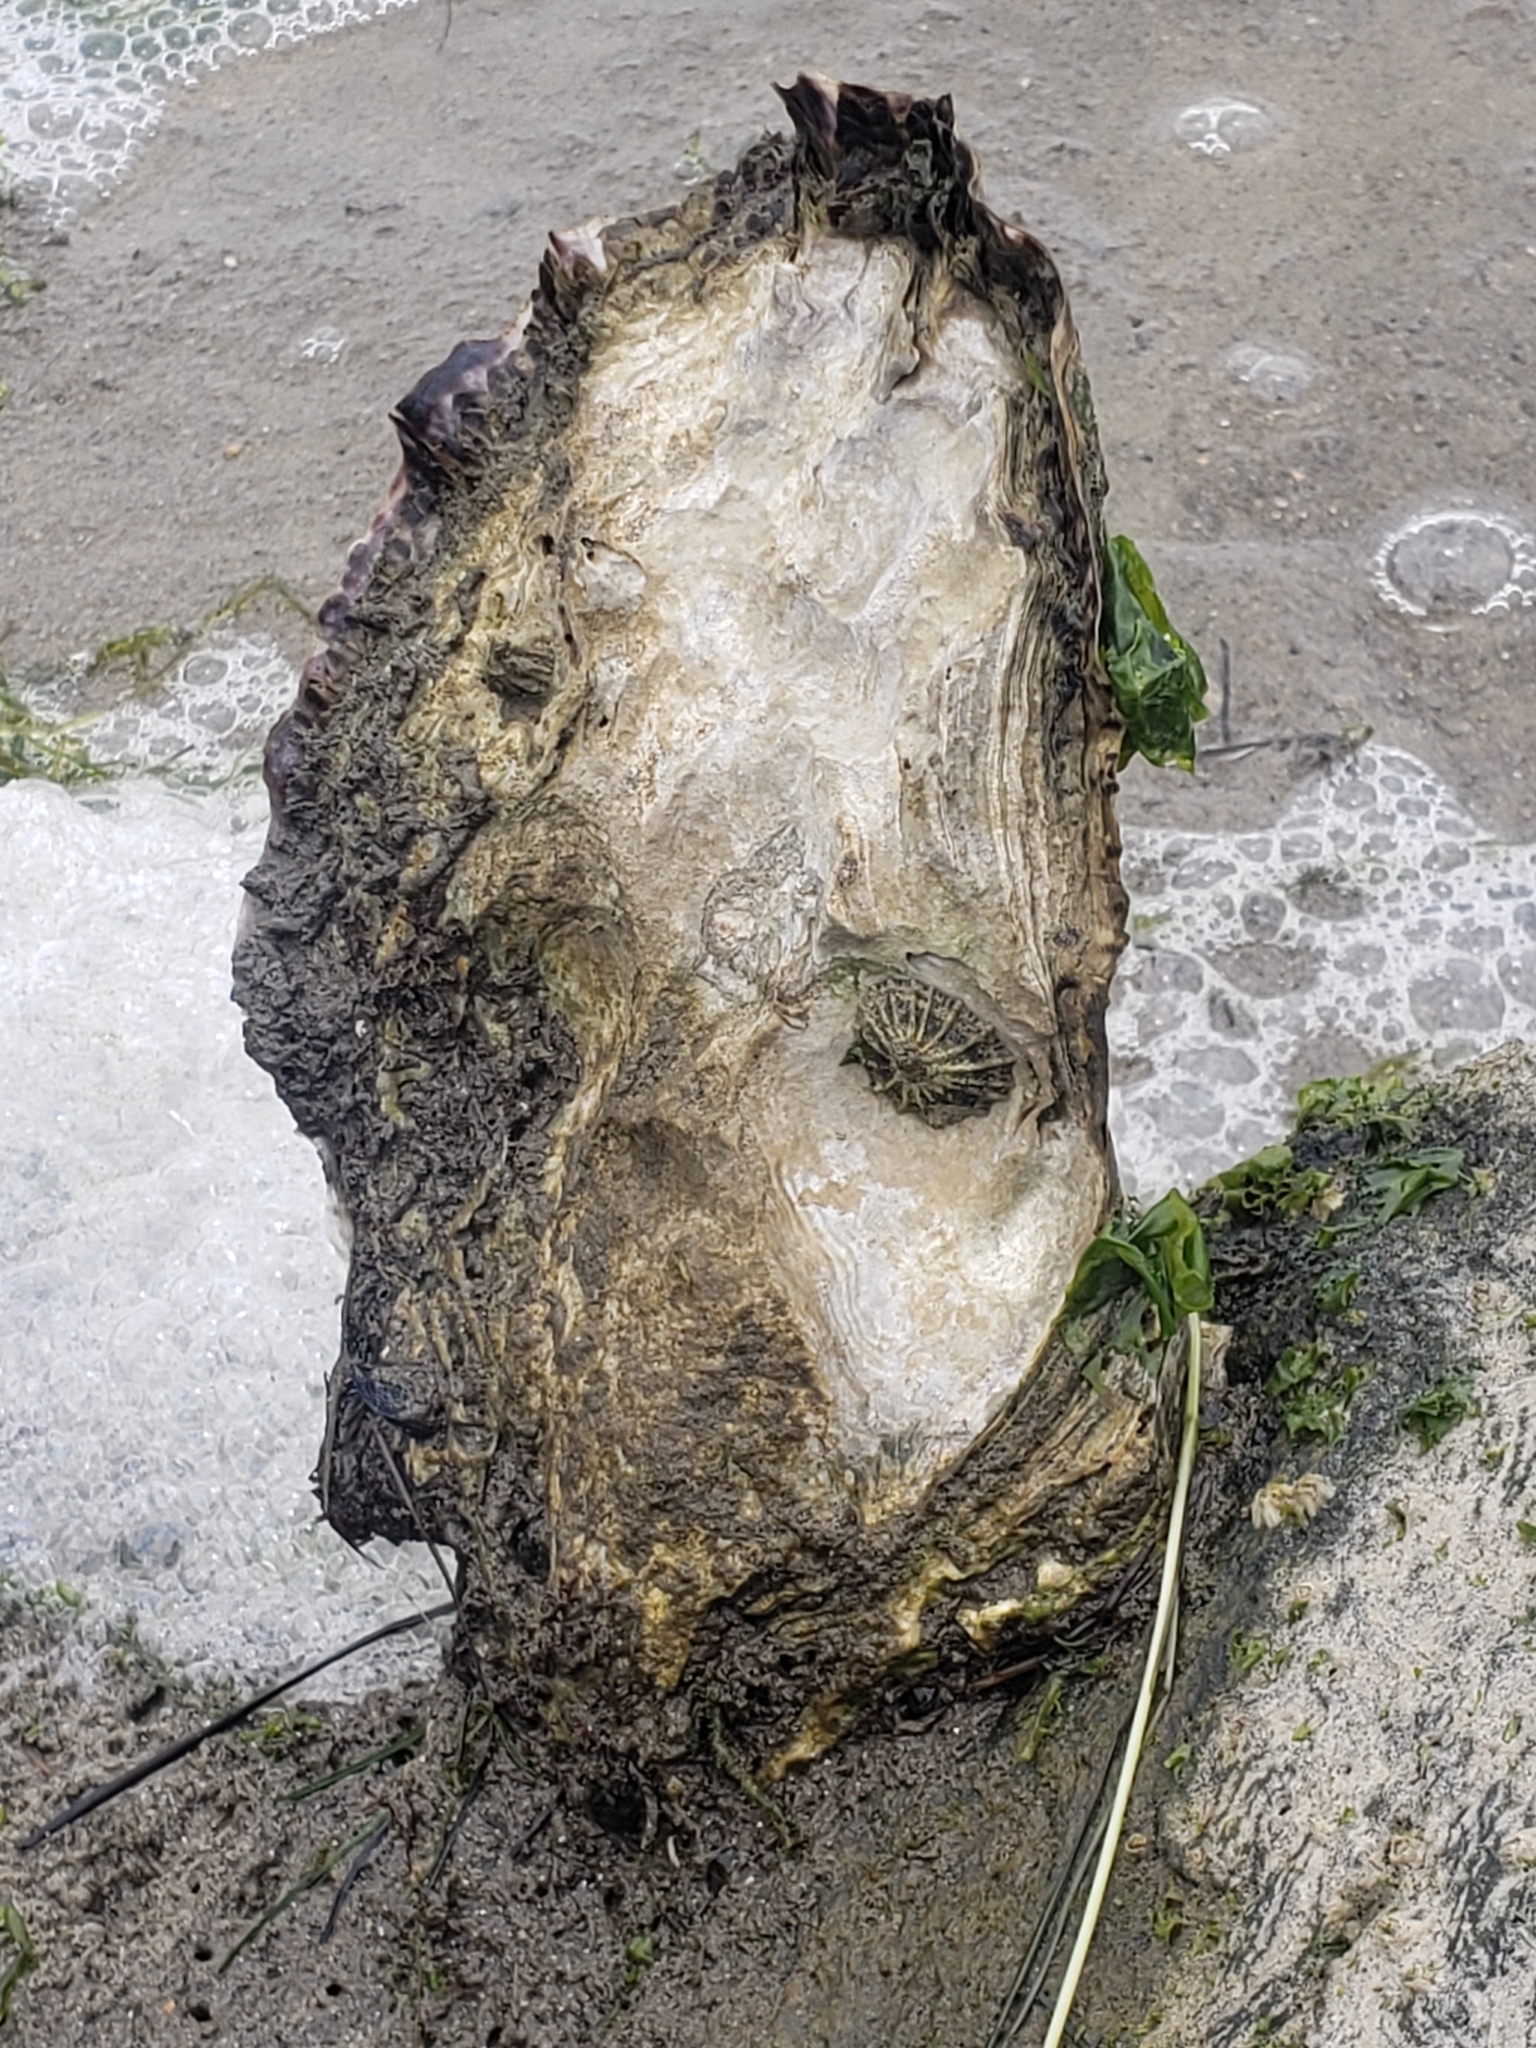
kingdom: Animalia
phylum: Mollusca
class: Bivalvia
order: Ostreida
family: Ostreidae
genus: Magallana
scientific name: Magallana gigas
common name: Pacific oyster
